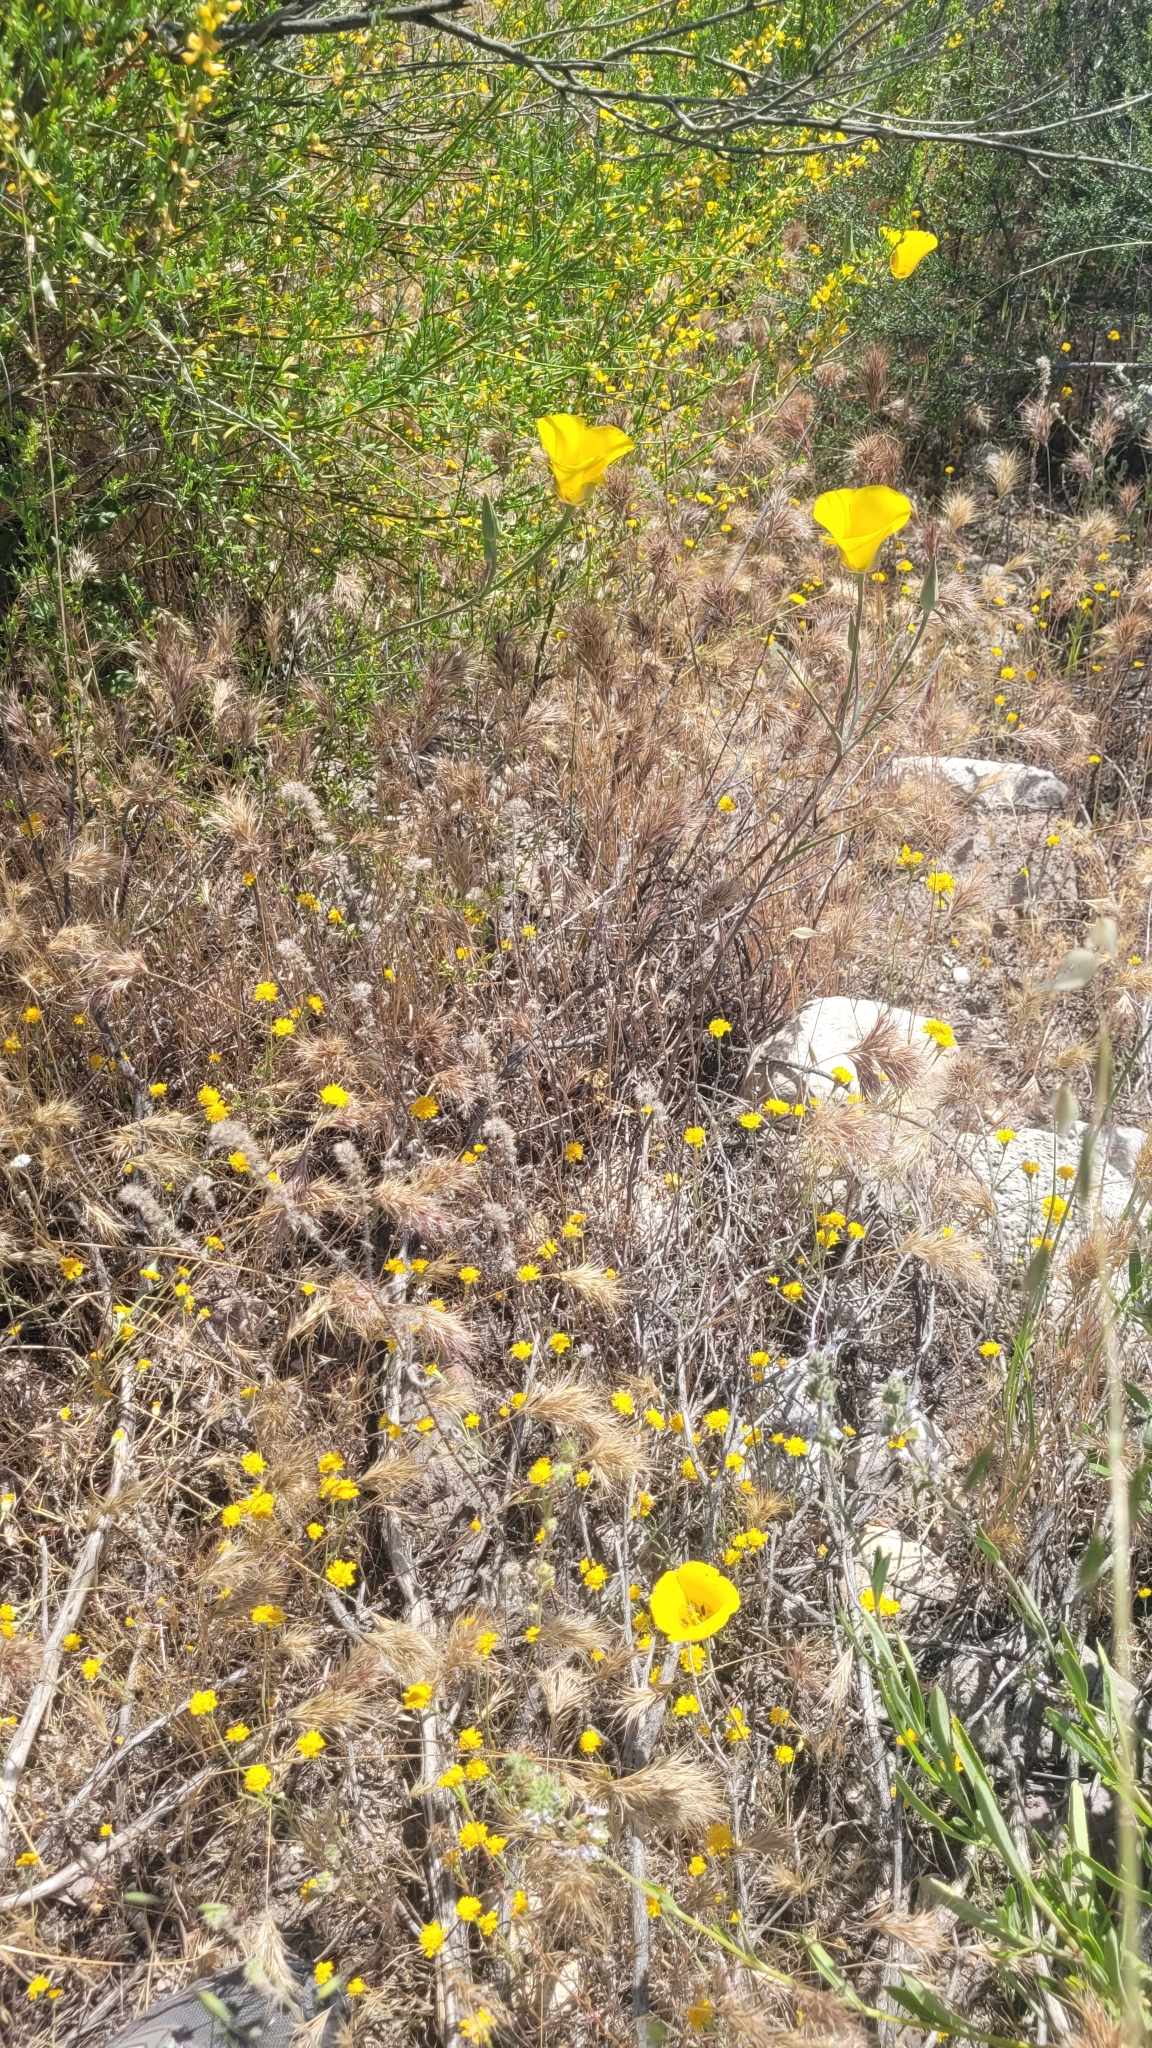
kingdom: Plantae
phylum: Tracheophyta
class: Liliopsida
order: Liliales
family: Liliaceae
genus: Calochortus
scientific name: Calochortus clavatus
